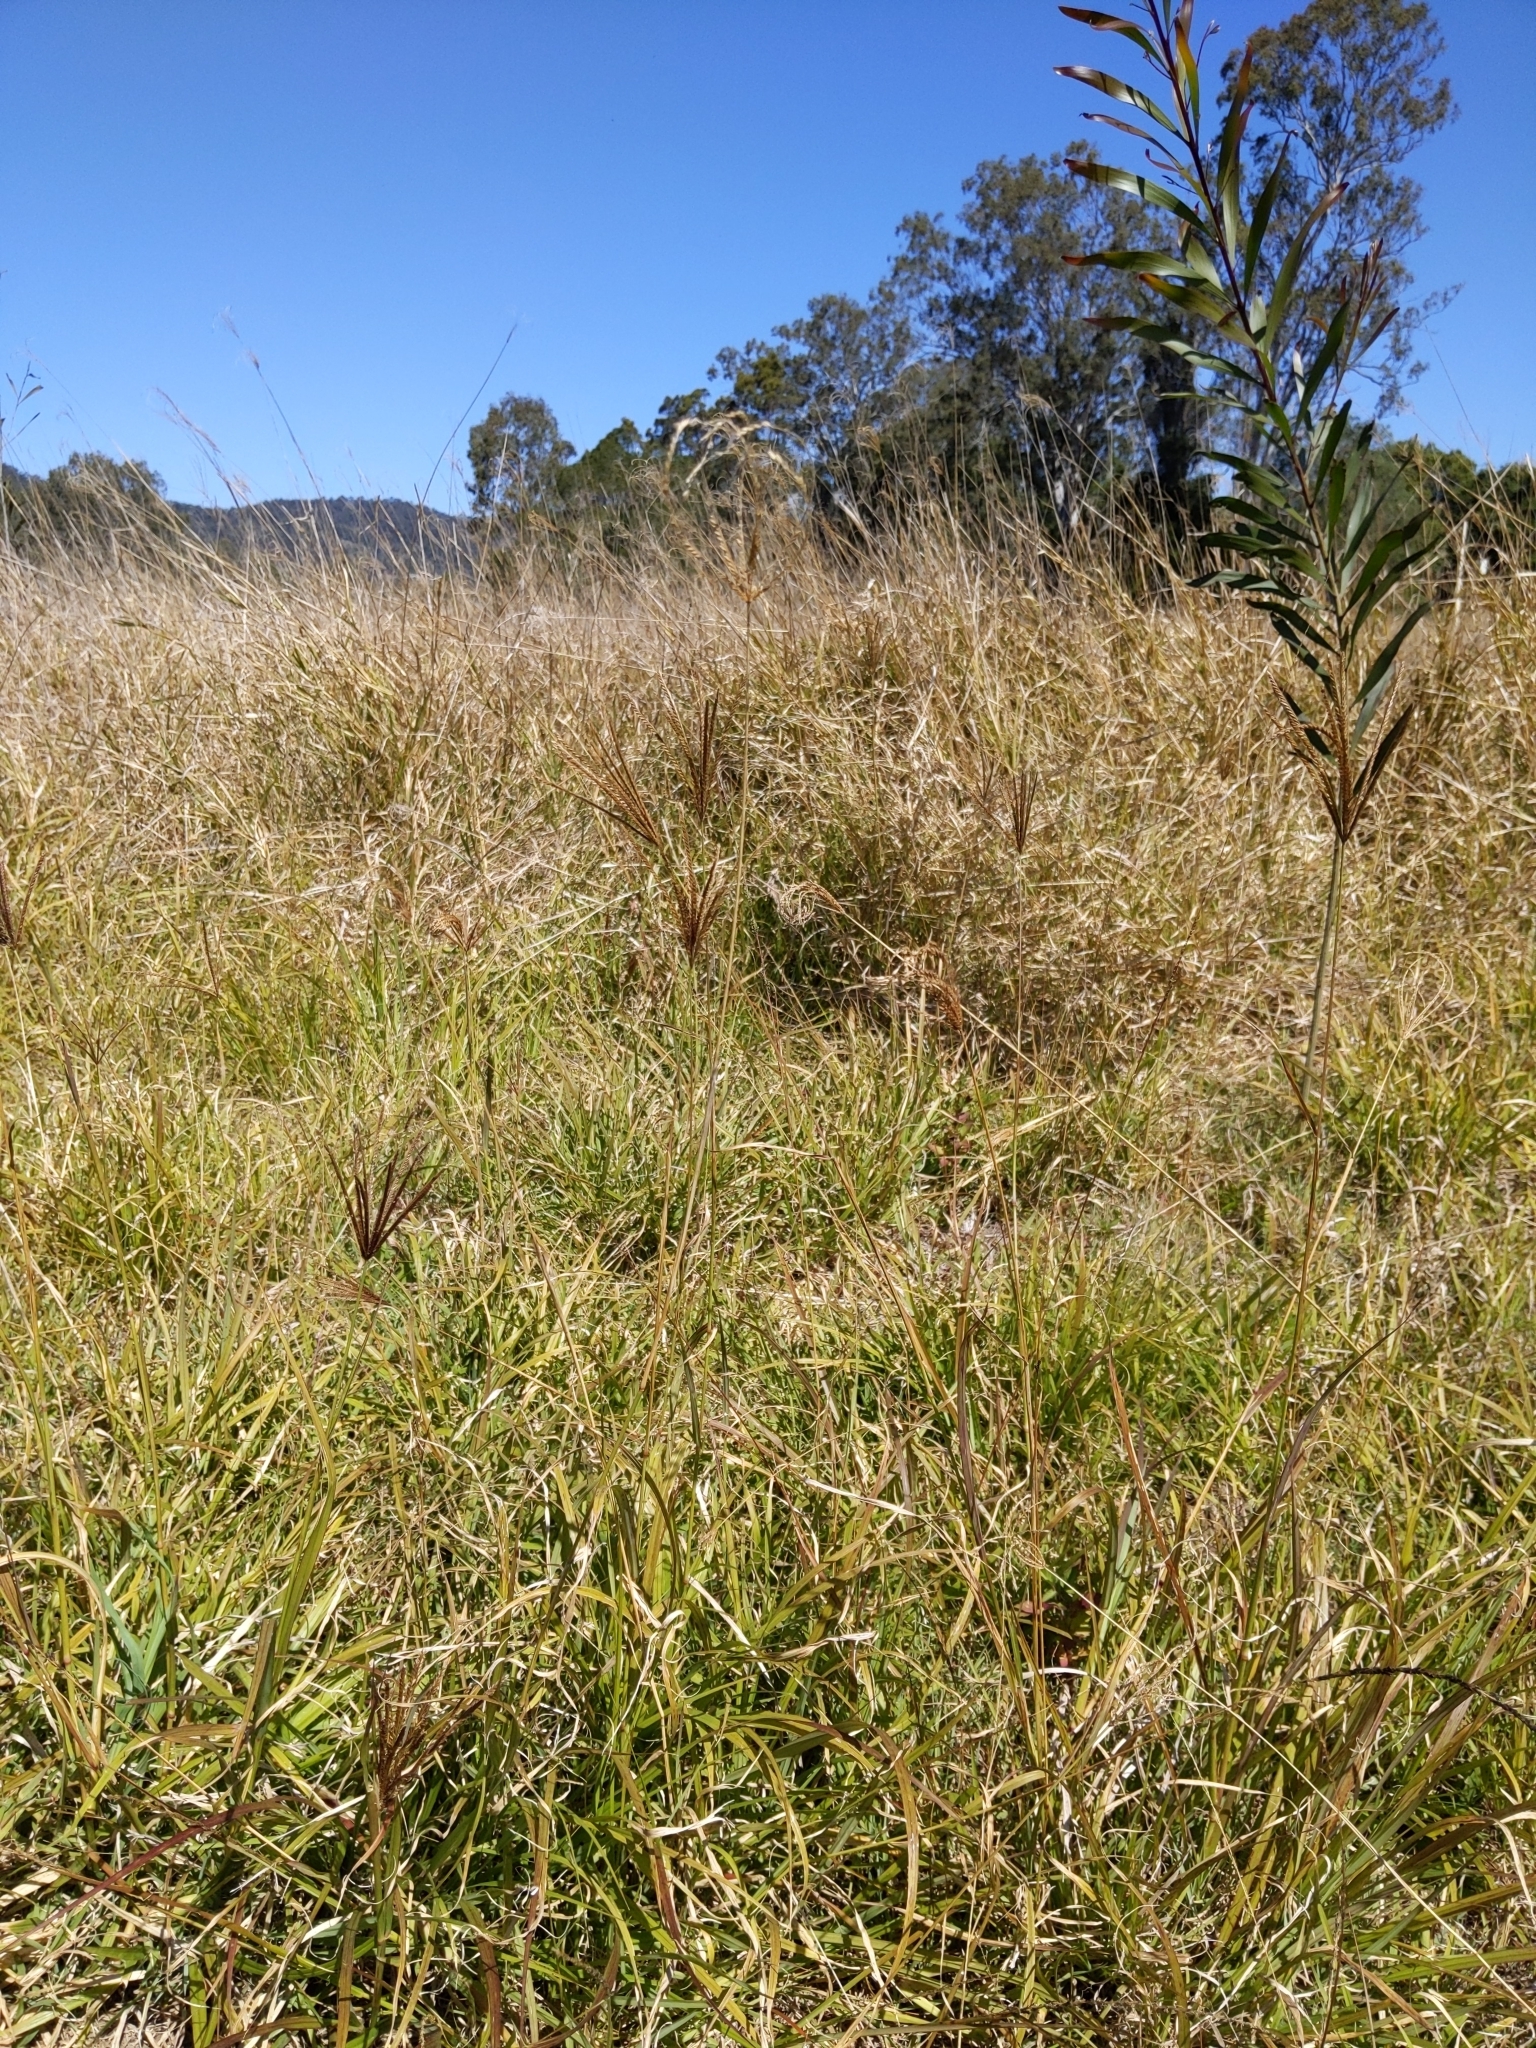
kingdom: Plantae
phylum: Tracheophyta
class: Liliopsida
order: Poales
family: Poaceae
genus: Chloris
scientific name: Chloris gayana
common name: Rhodes grass
